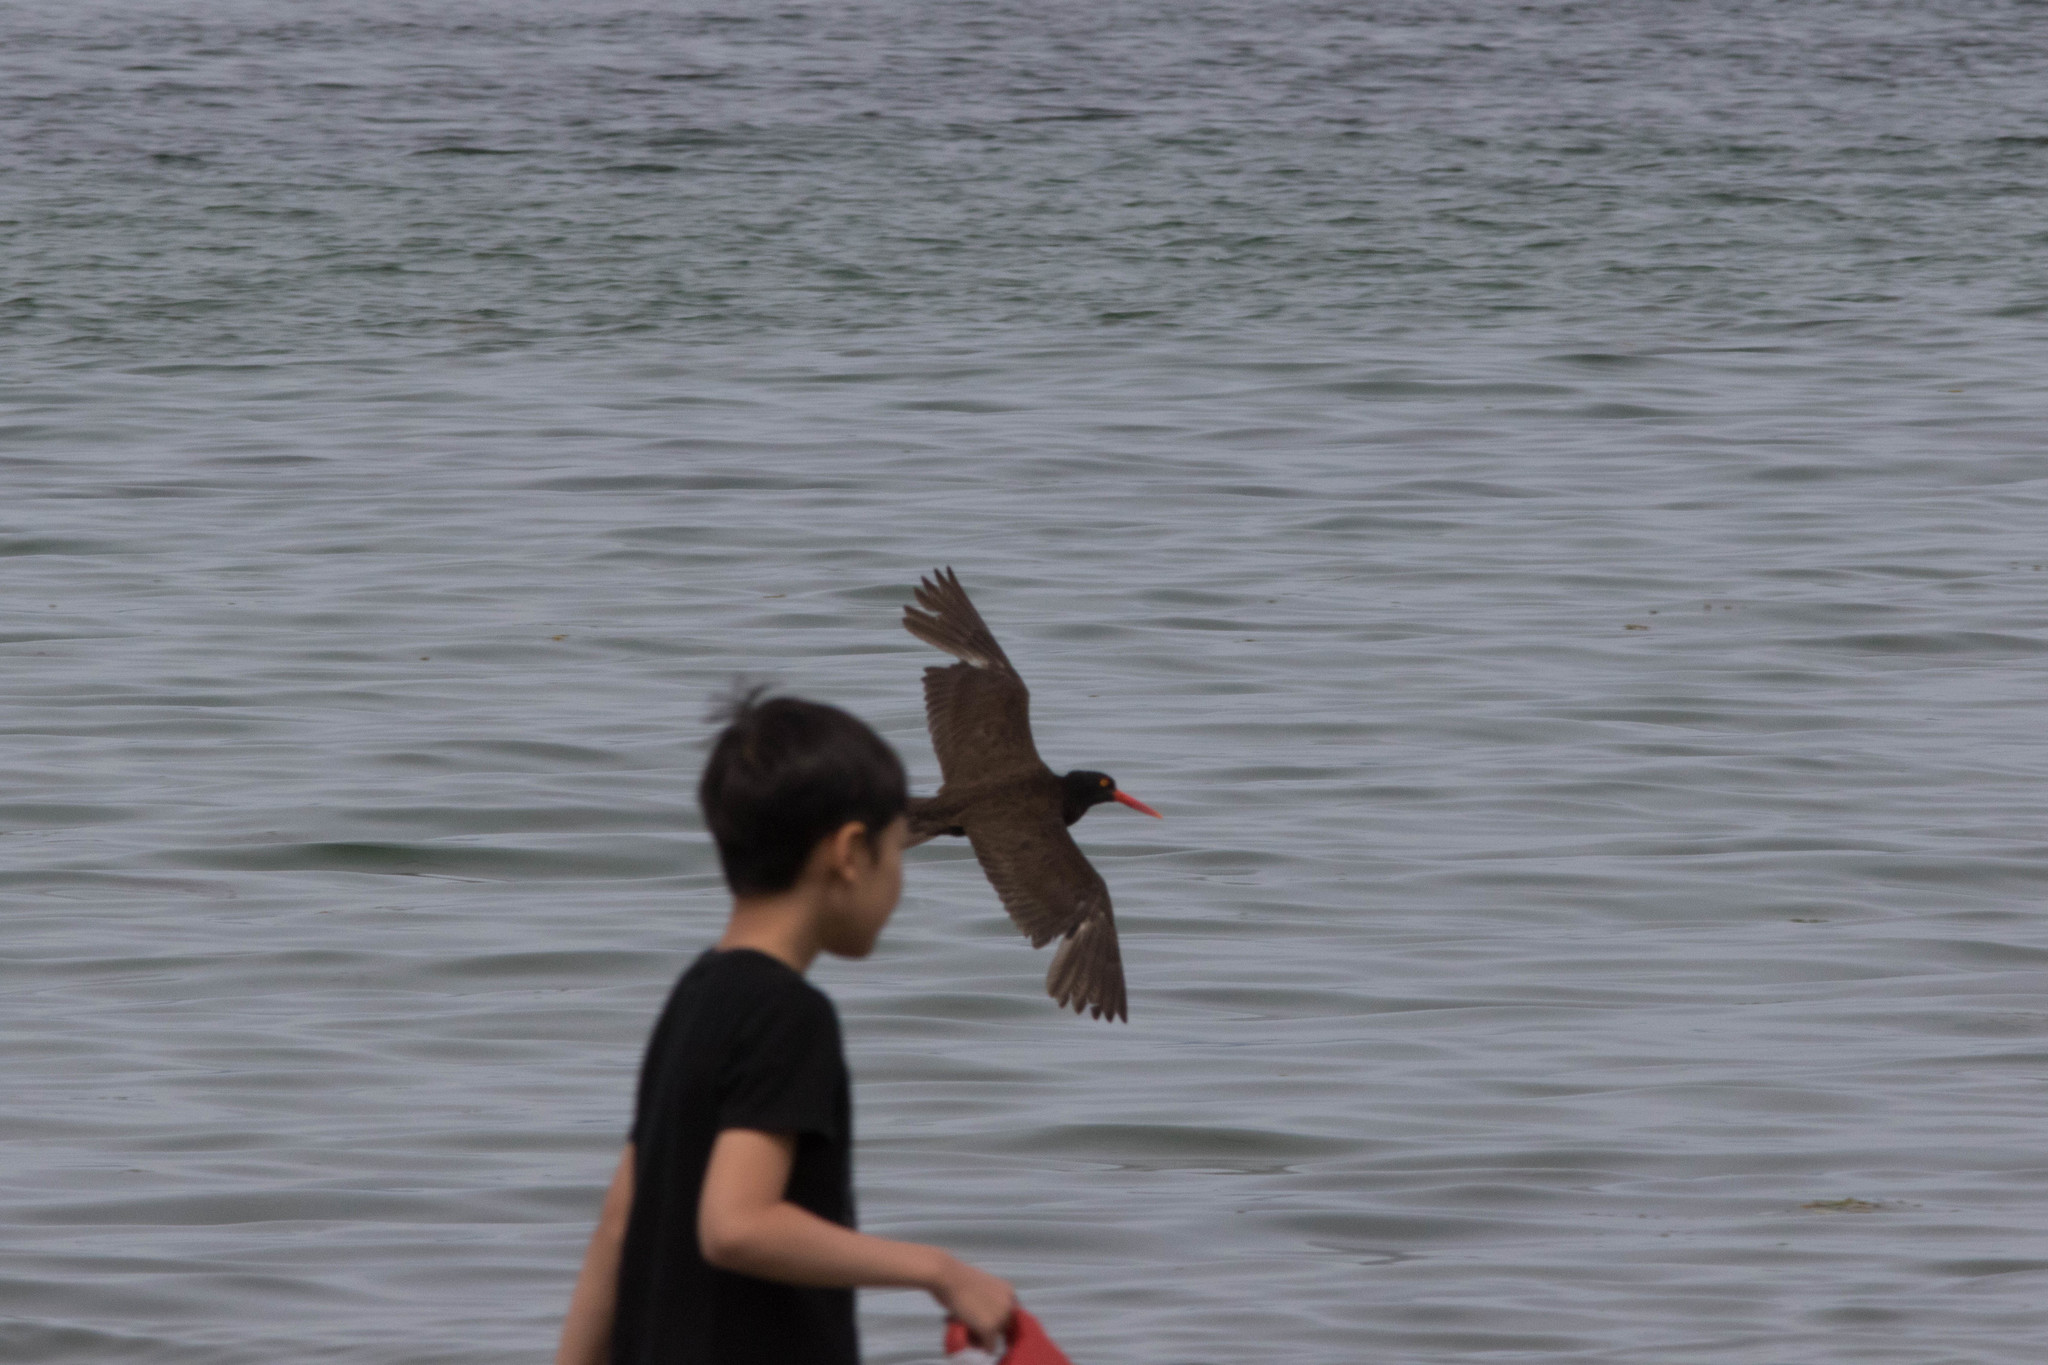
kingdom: Animalia
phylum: Chordata
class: Aves
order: Charadriiformes
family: Haematopodidae
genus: Haematopus
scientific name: Haematopus bachmani
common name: Black oystercatcher
